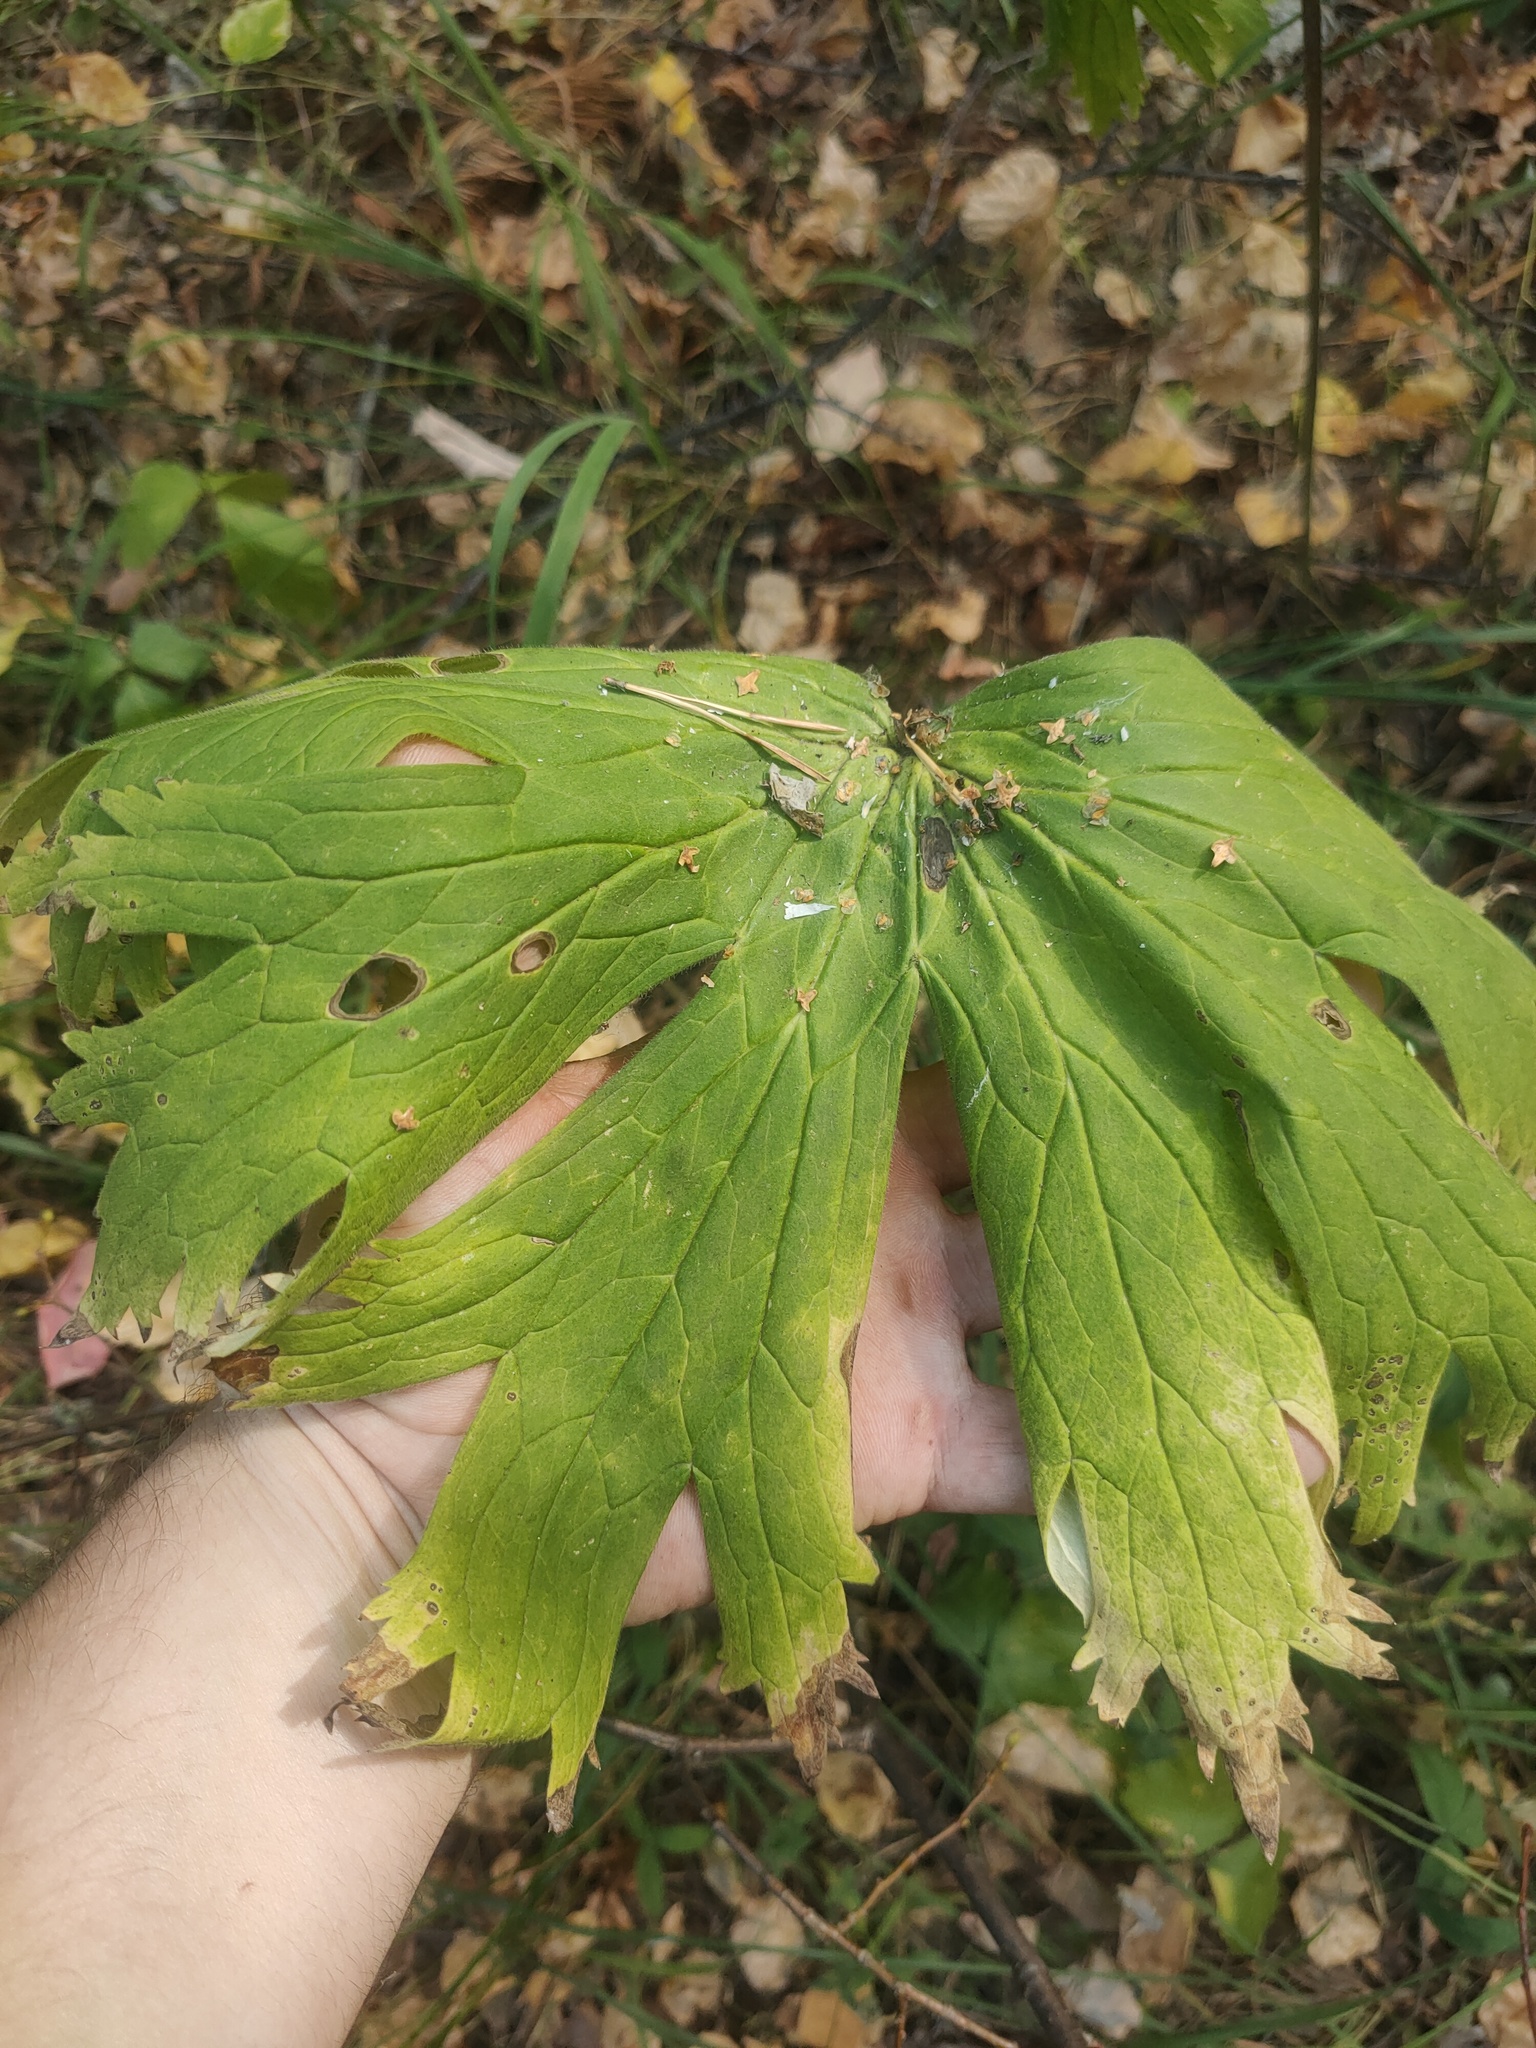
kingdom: Plantae
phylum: Tracheophyta
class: Magnoliopsida
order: Ranunculales
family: Ranunculaceae
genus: Aconitum
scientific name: Aconitum septentrionale
